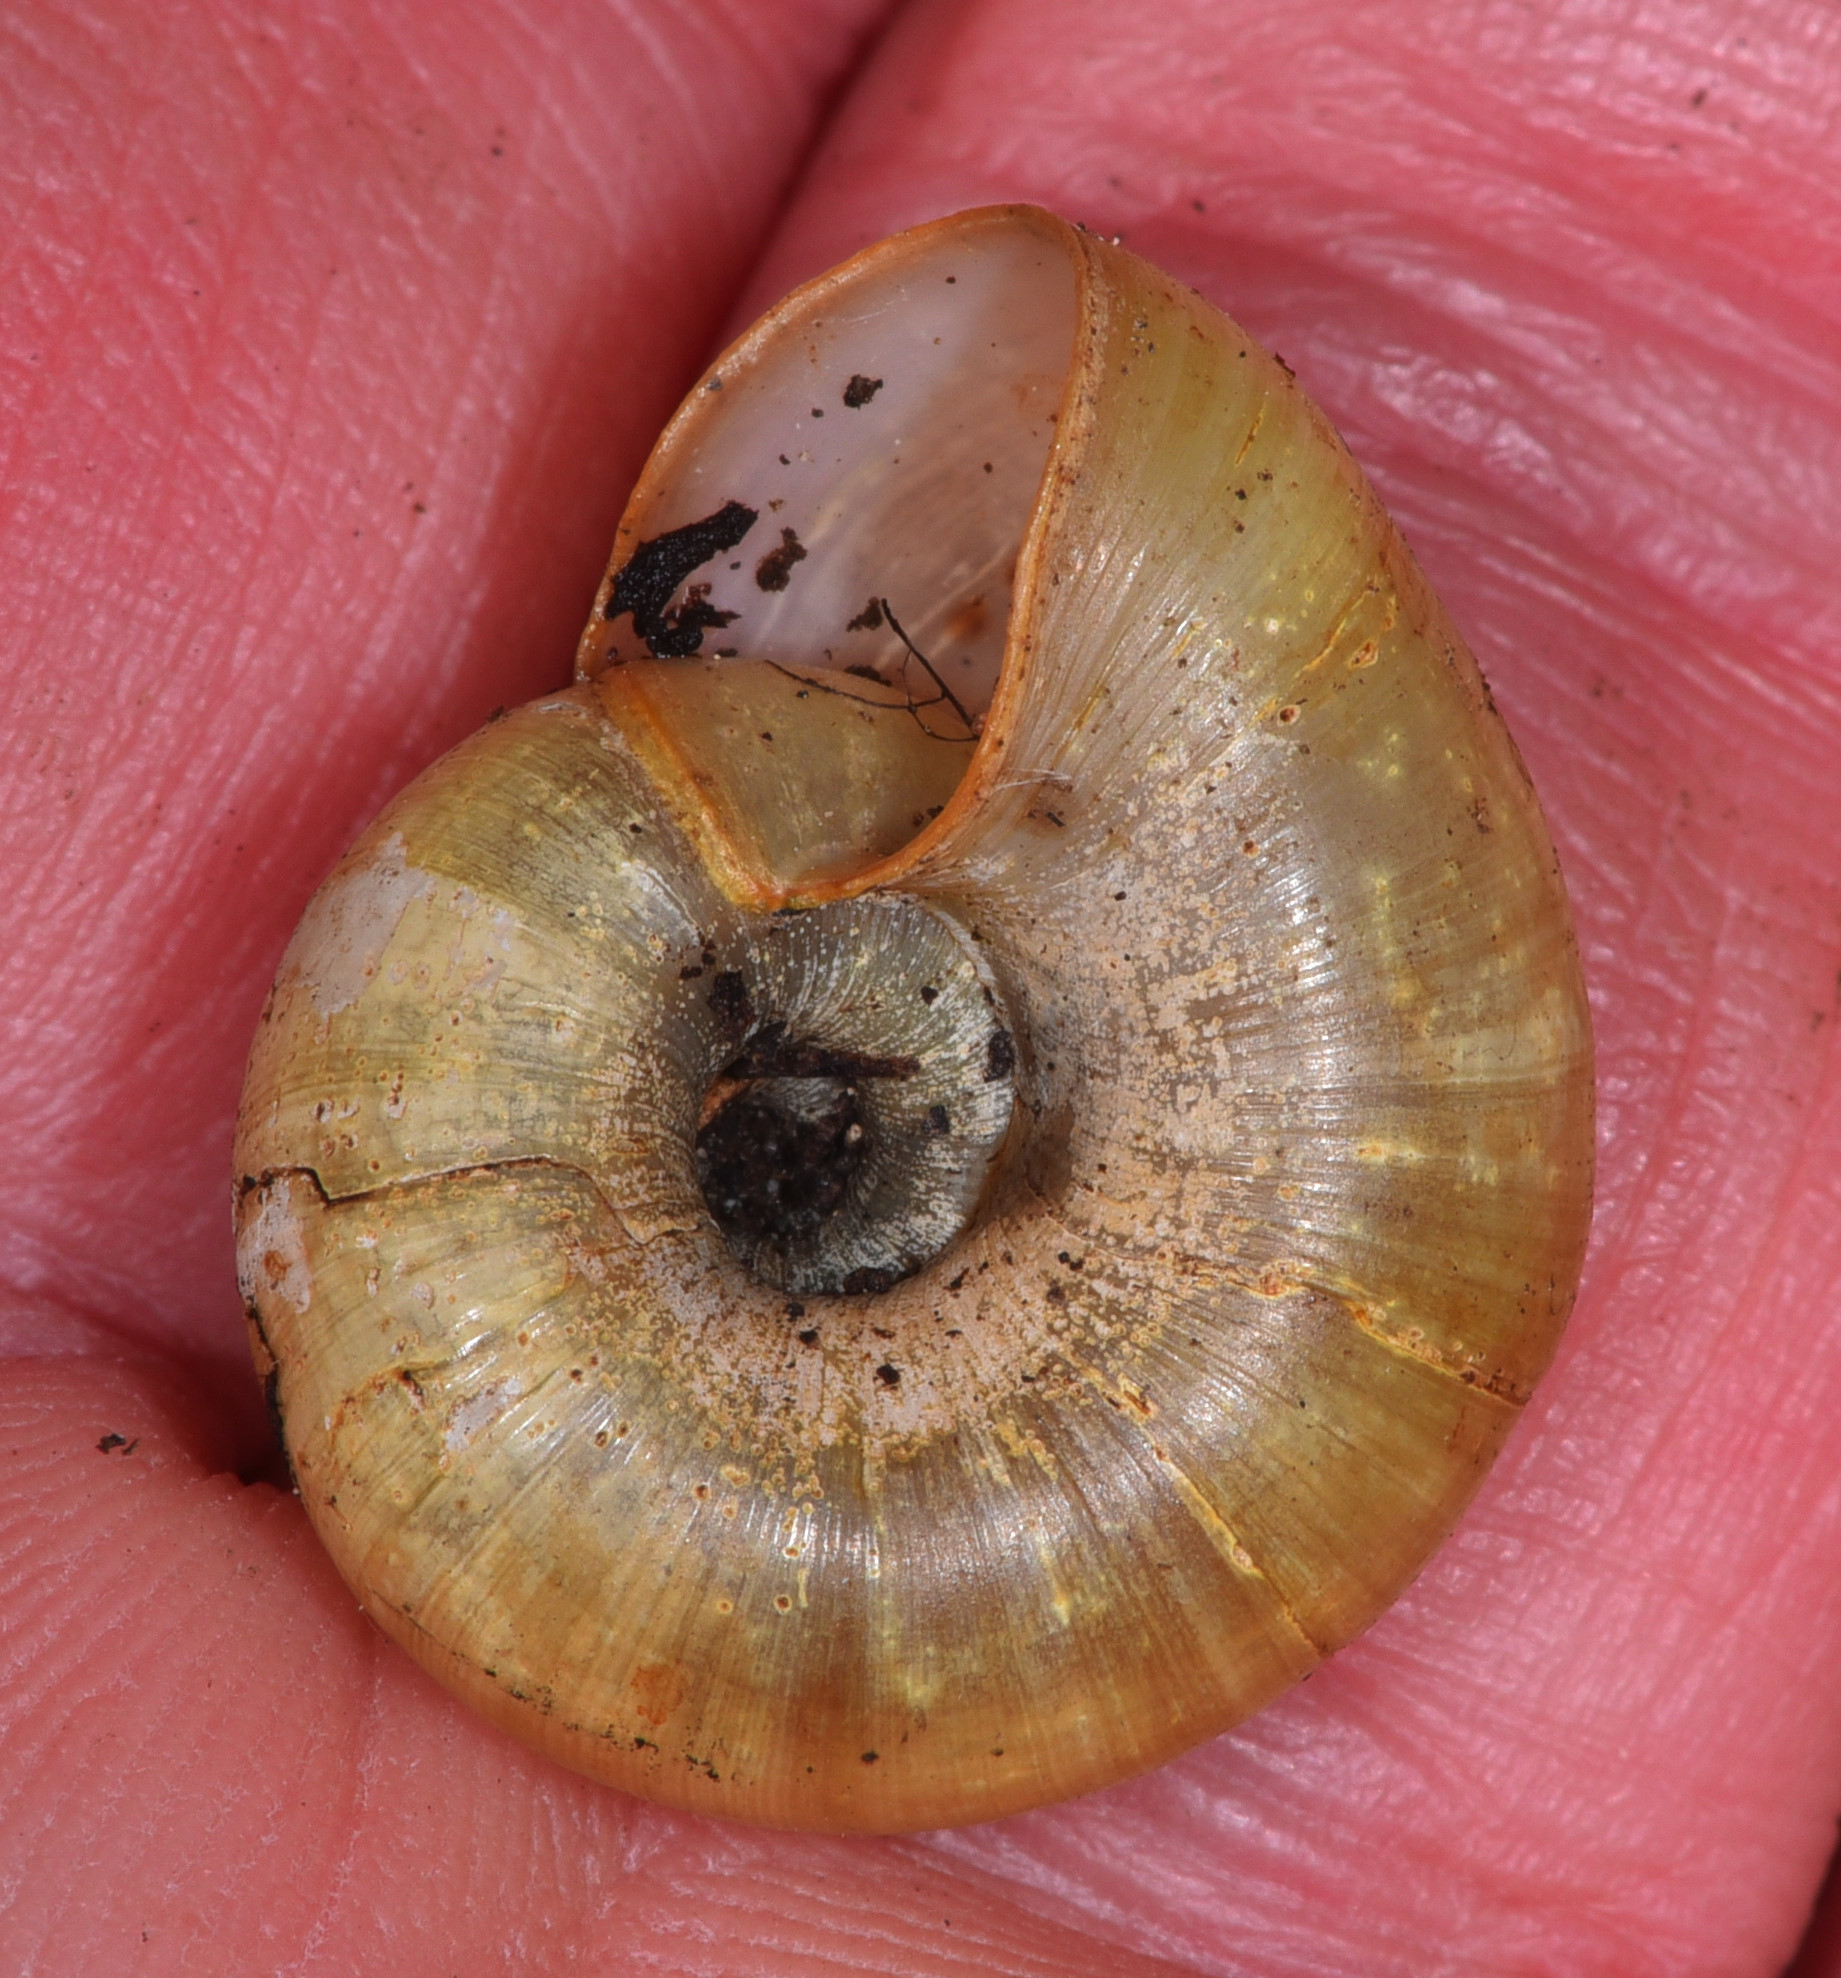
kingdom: Animalia
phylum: Mollusca
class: Gastropoda
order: Stylommatophora
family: Haplotrematidae
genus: Haplotrema
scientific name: Haplotrema minimum
